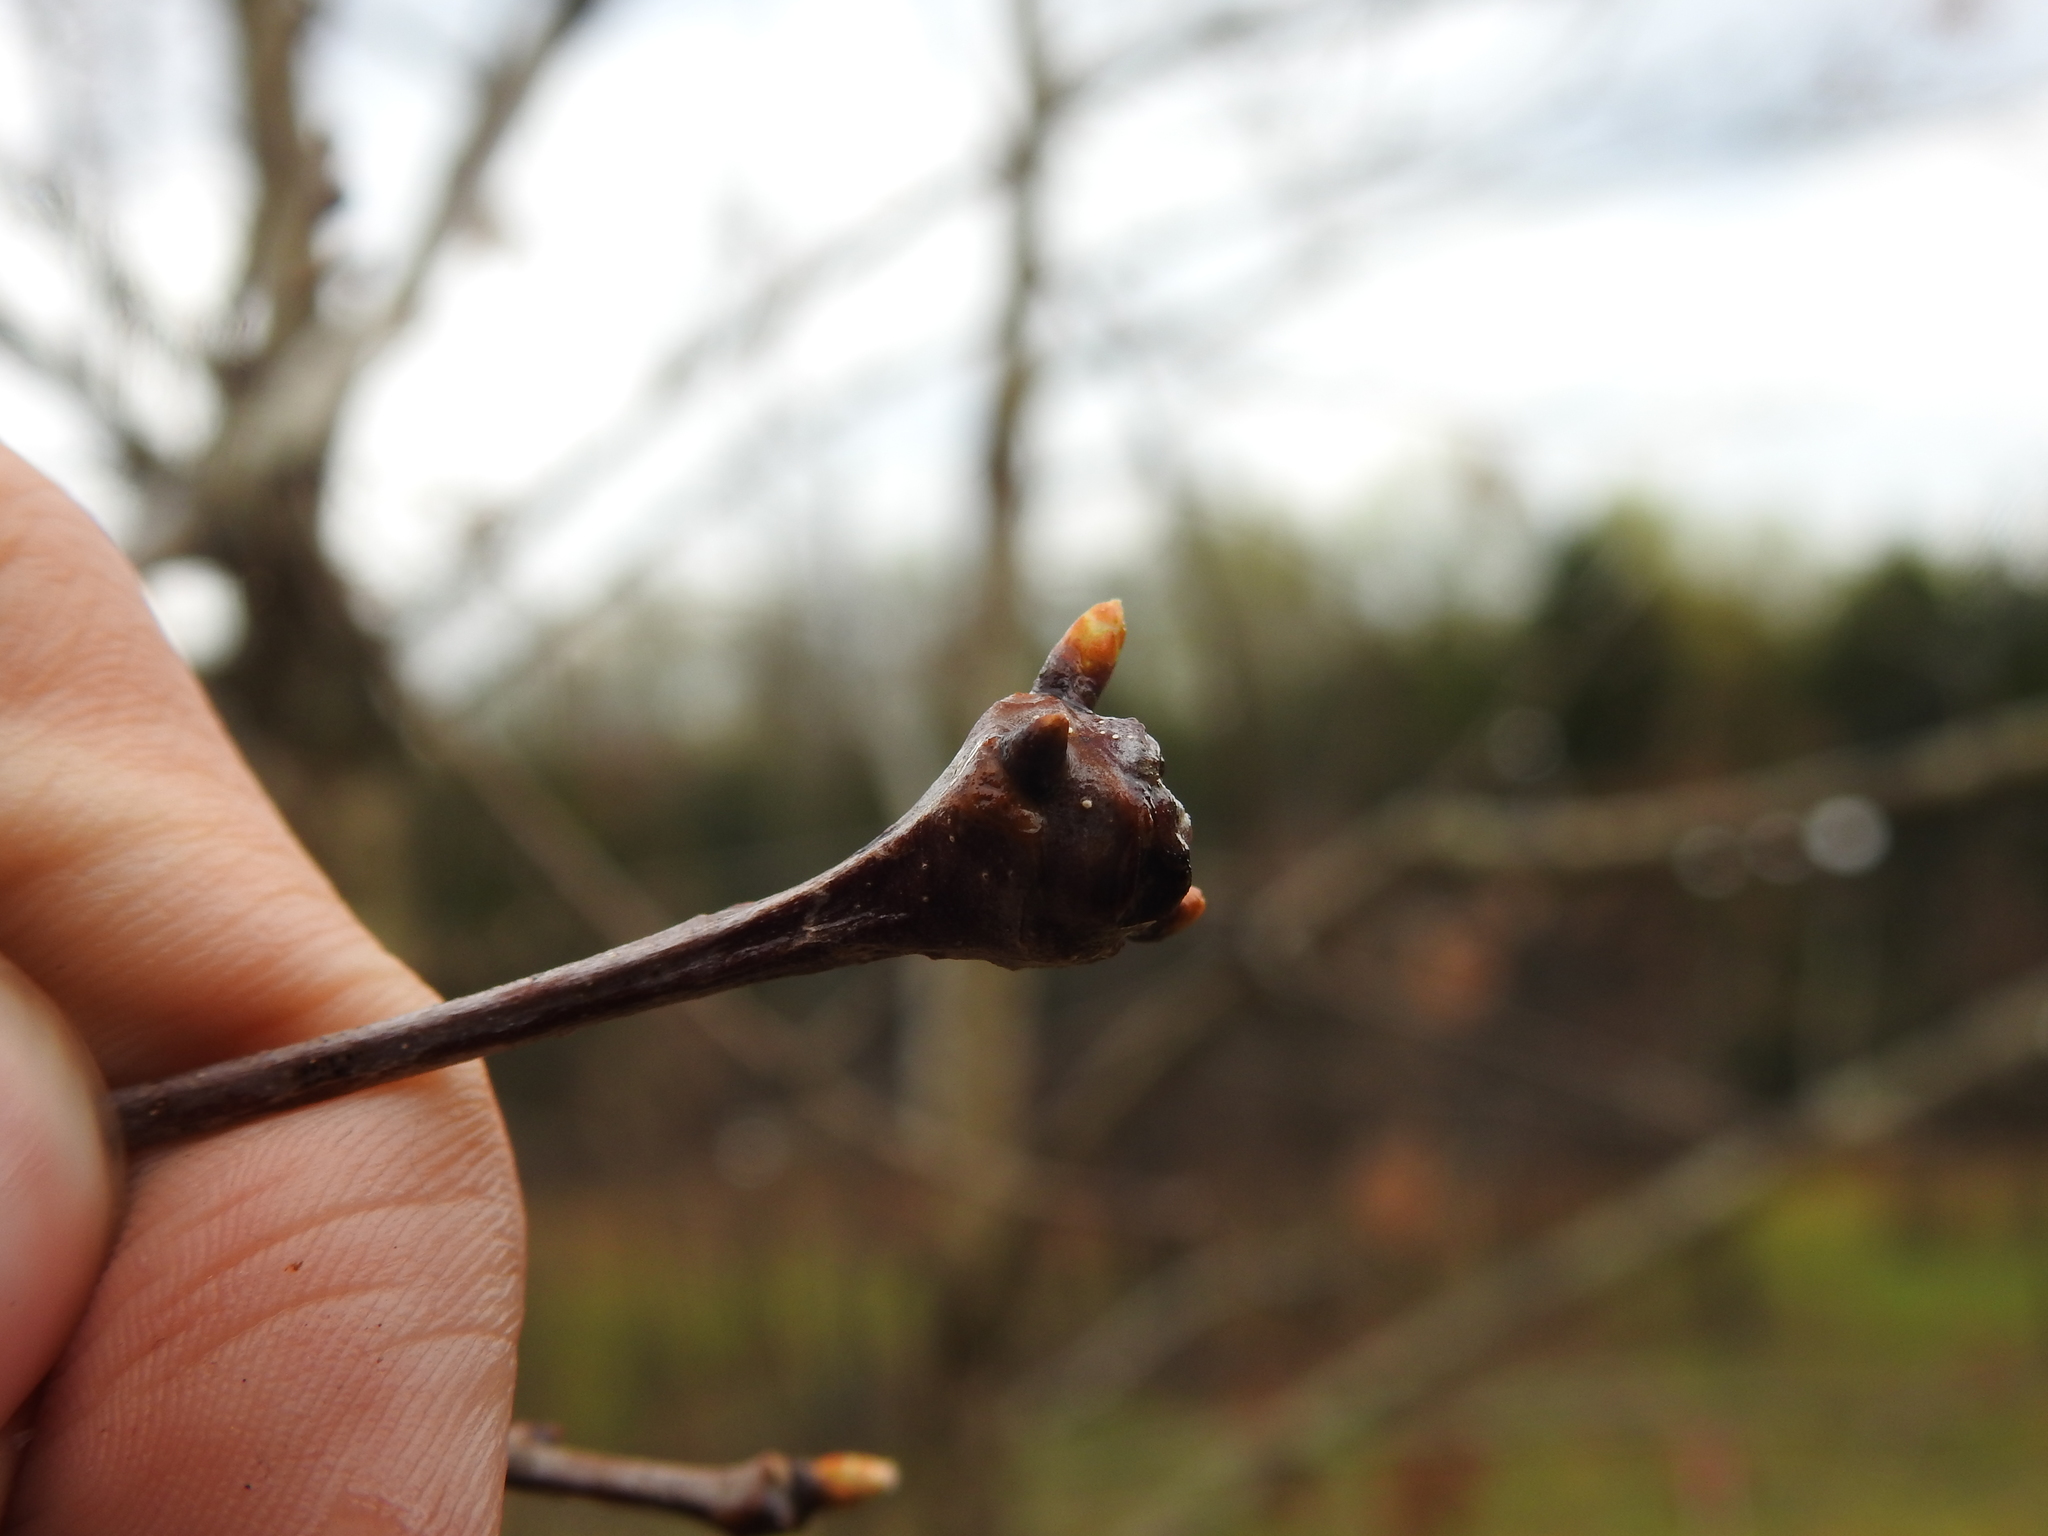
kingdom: Animalia
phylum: Arthropoda
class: Insecta
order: Hymenoptera
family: Cynipidae
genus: Callirhytis
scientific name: Callirhytis clavula
